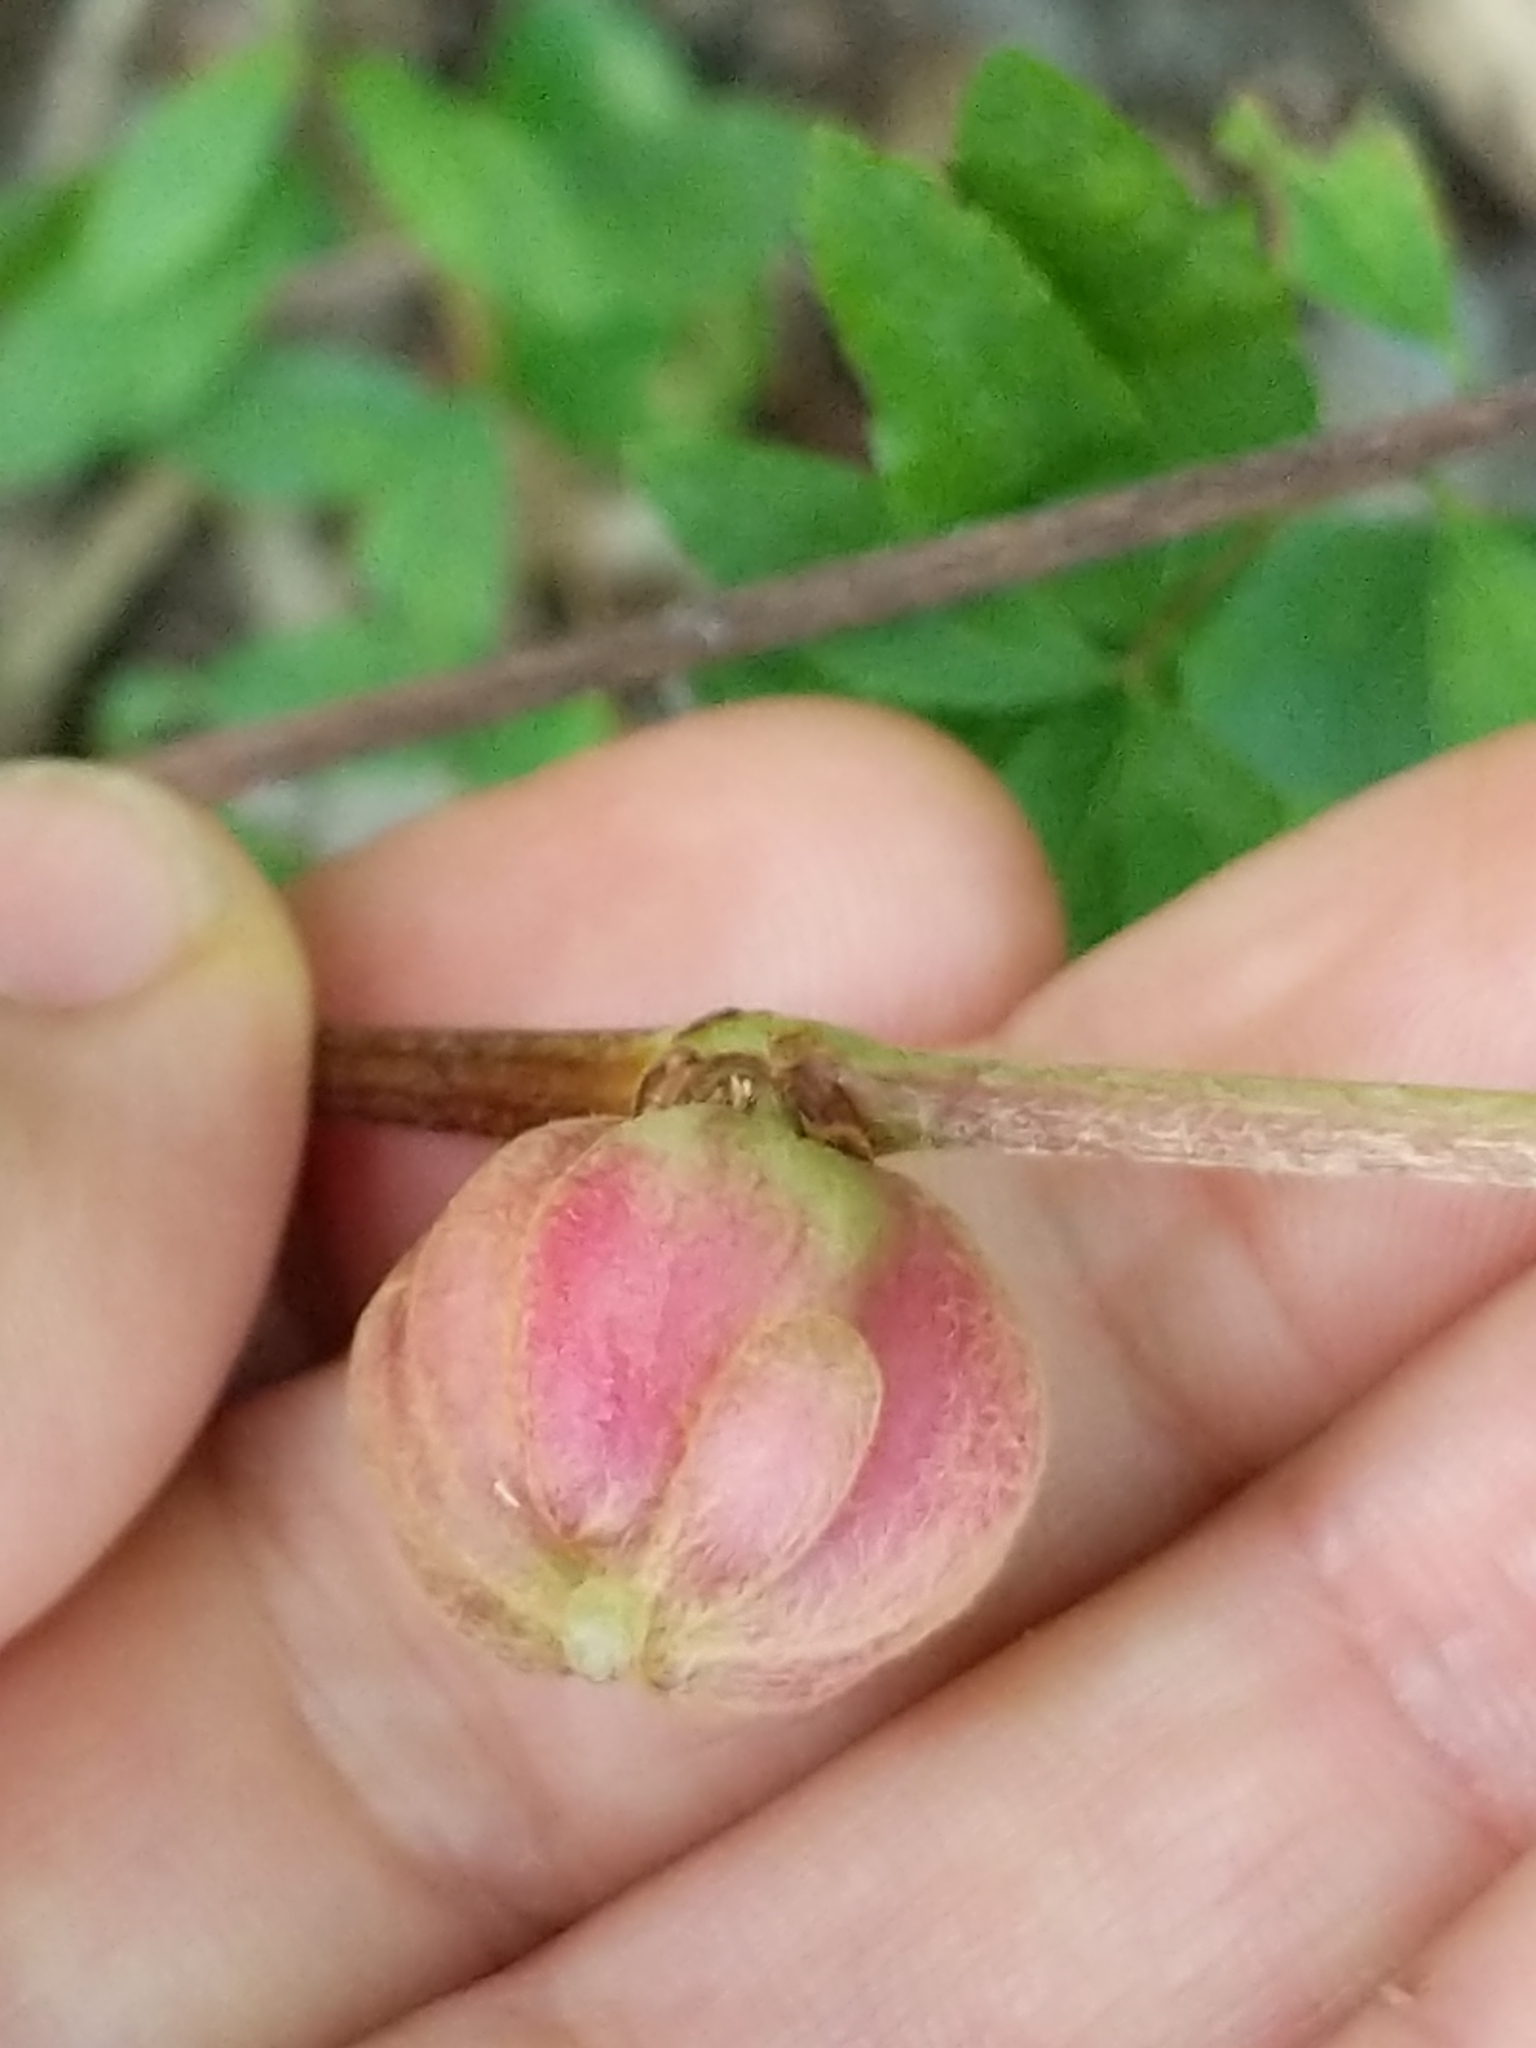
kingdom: Animalia
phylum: Arthropoda
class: Insecta
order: Diptera
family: Cecidomyiidae
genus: Ampelomyia
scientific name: Ampelomyia vitispomum
